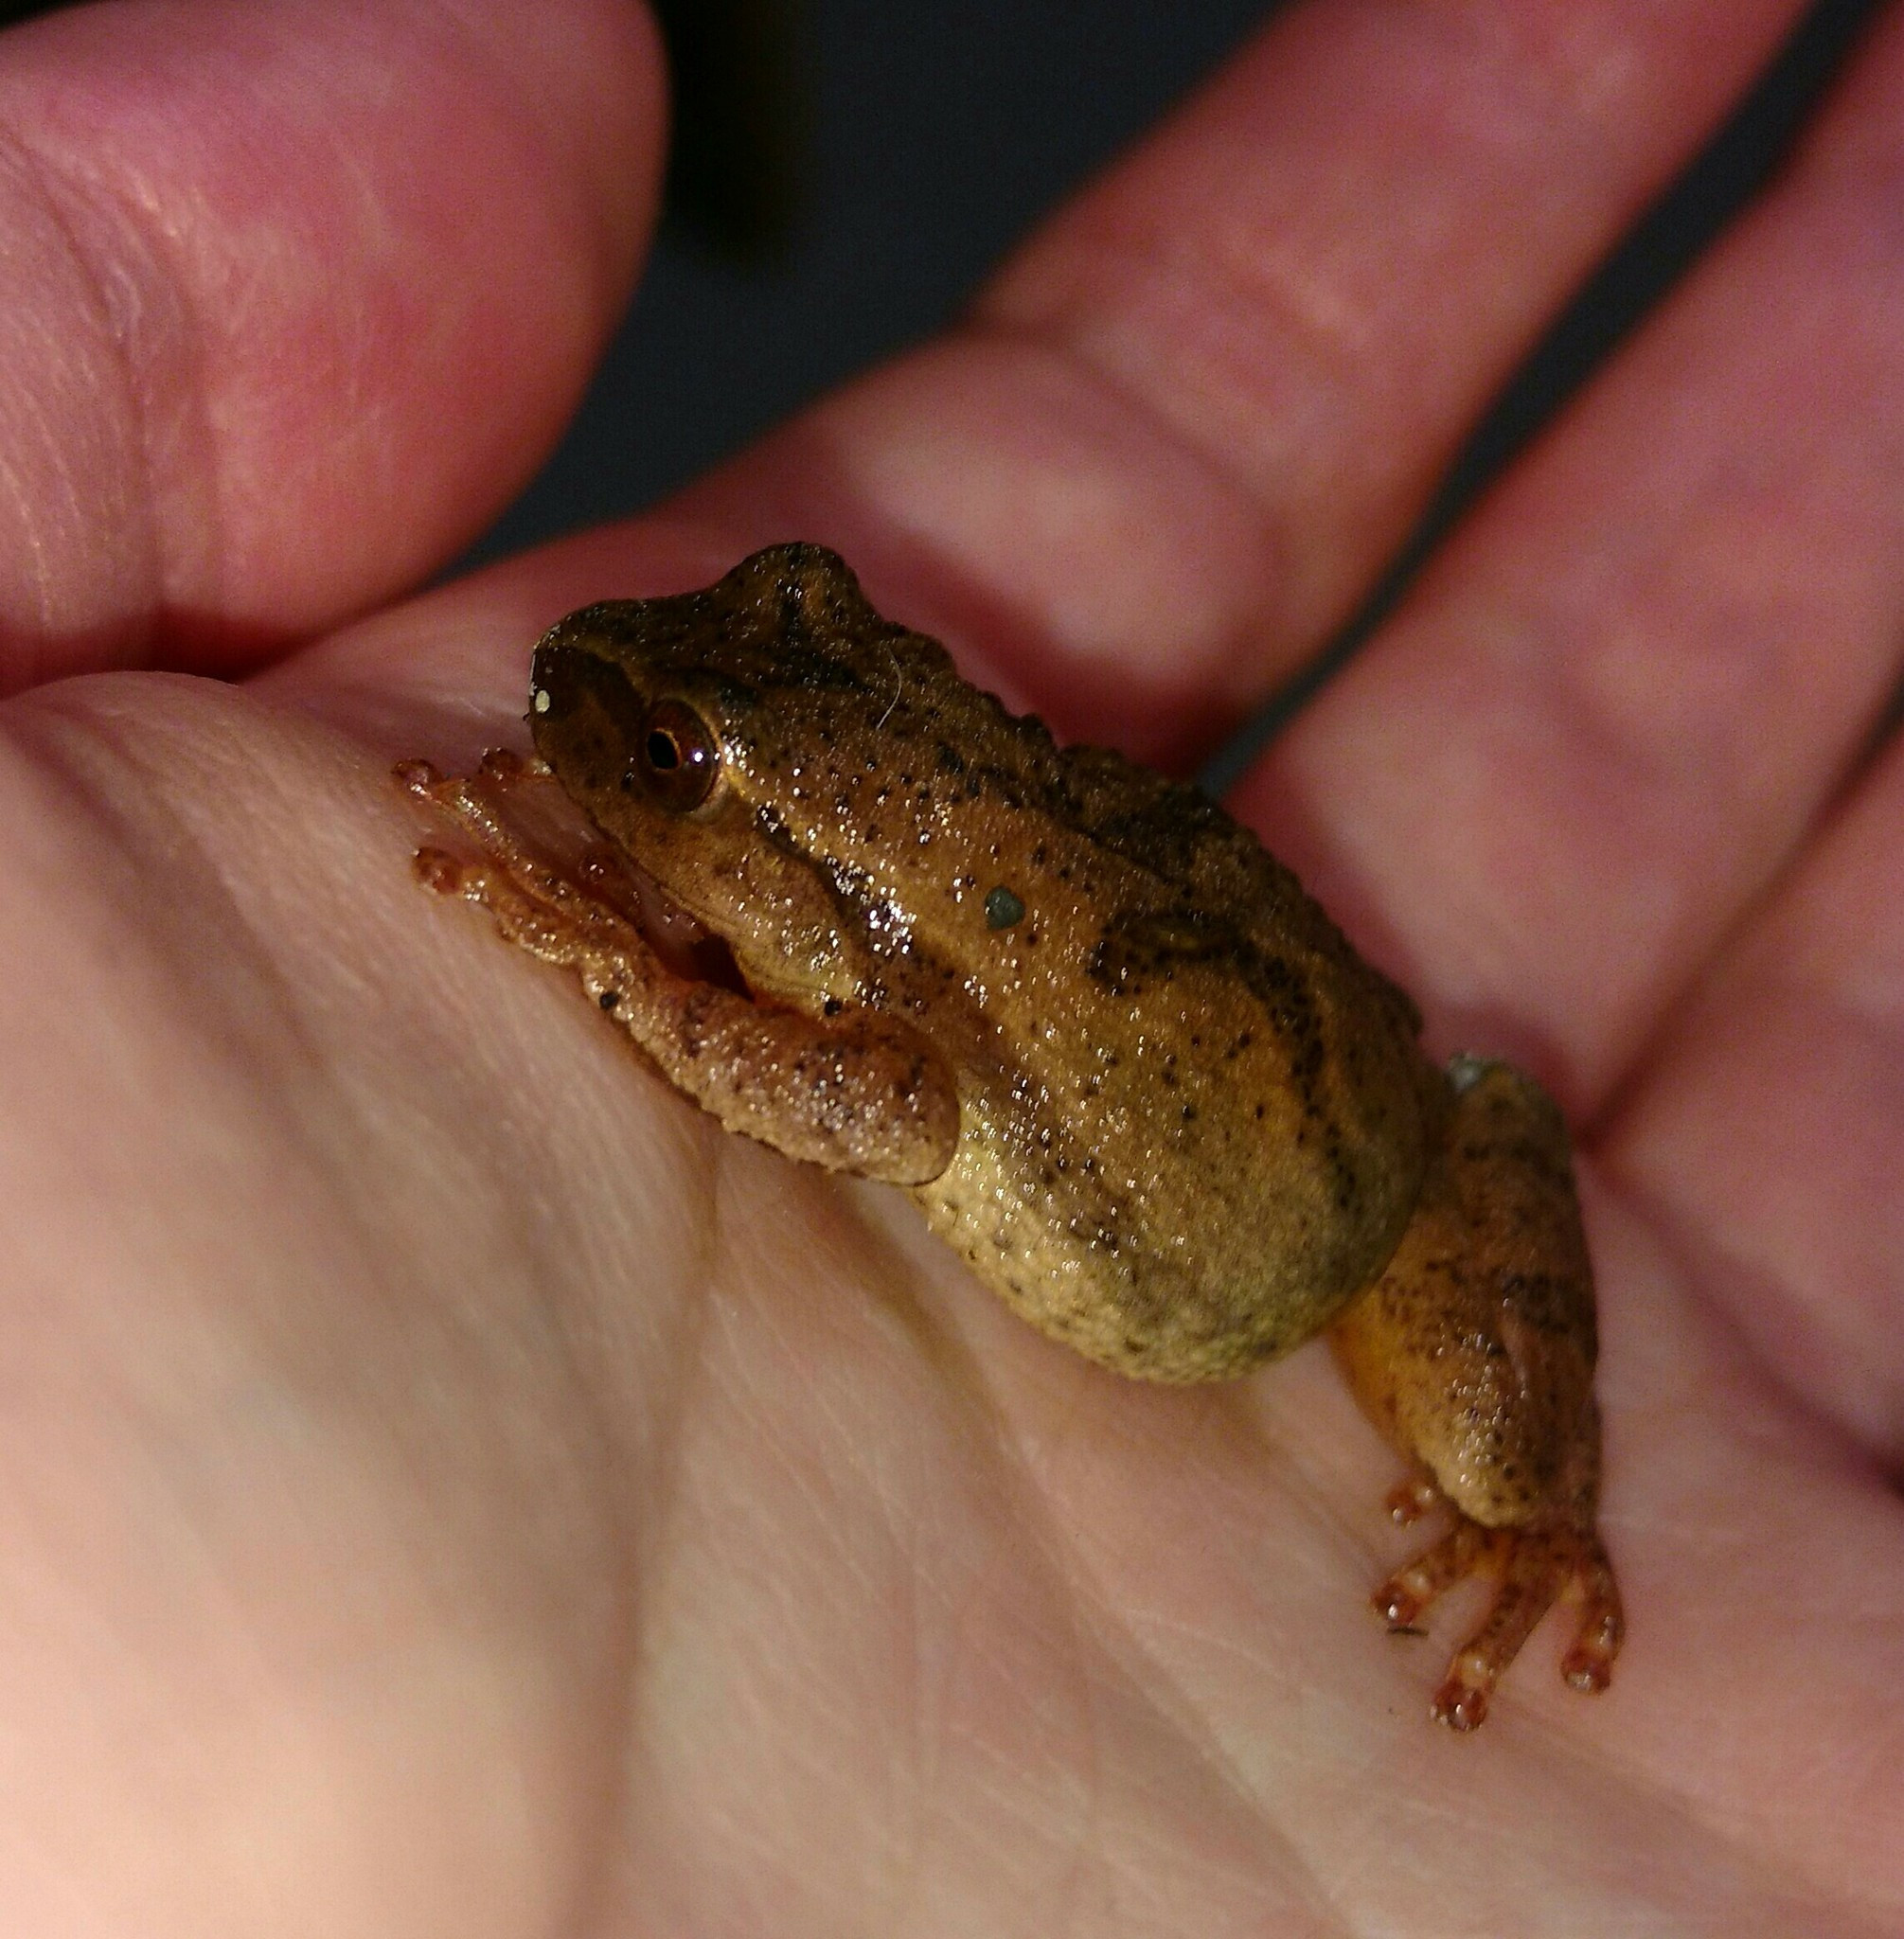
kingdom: Animalia
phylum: Chordata
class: Amphibia
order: Anura
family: Hylidae
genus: Pseudacris
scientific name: Pseudacris crucifer
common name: Spring peeper
